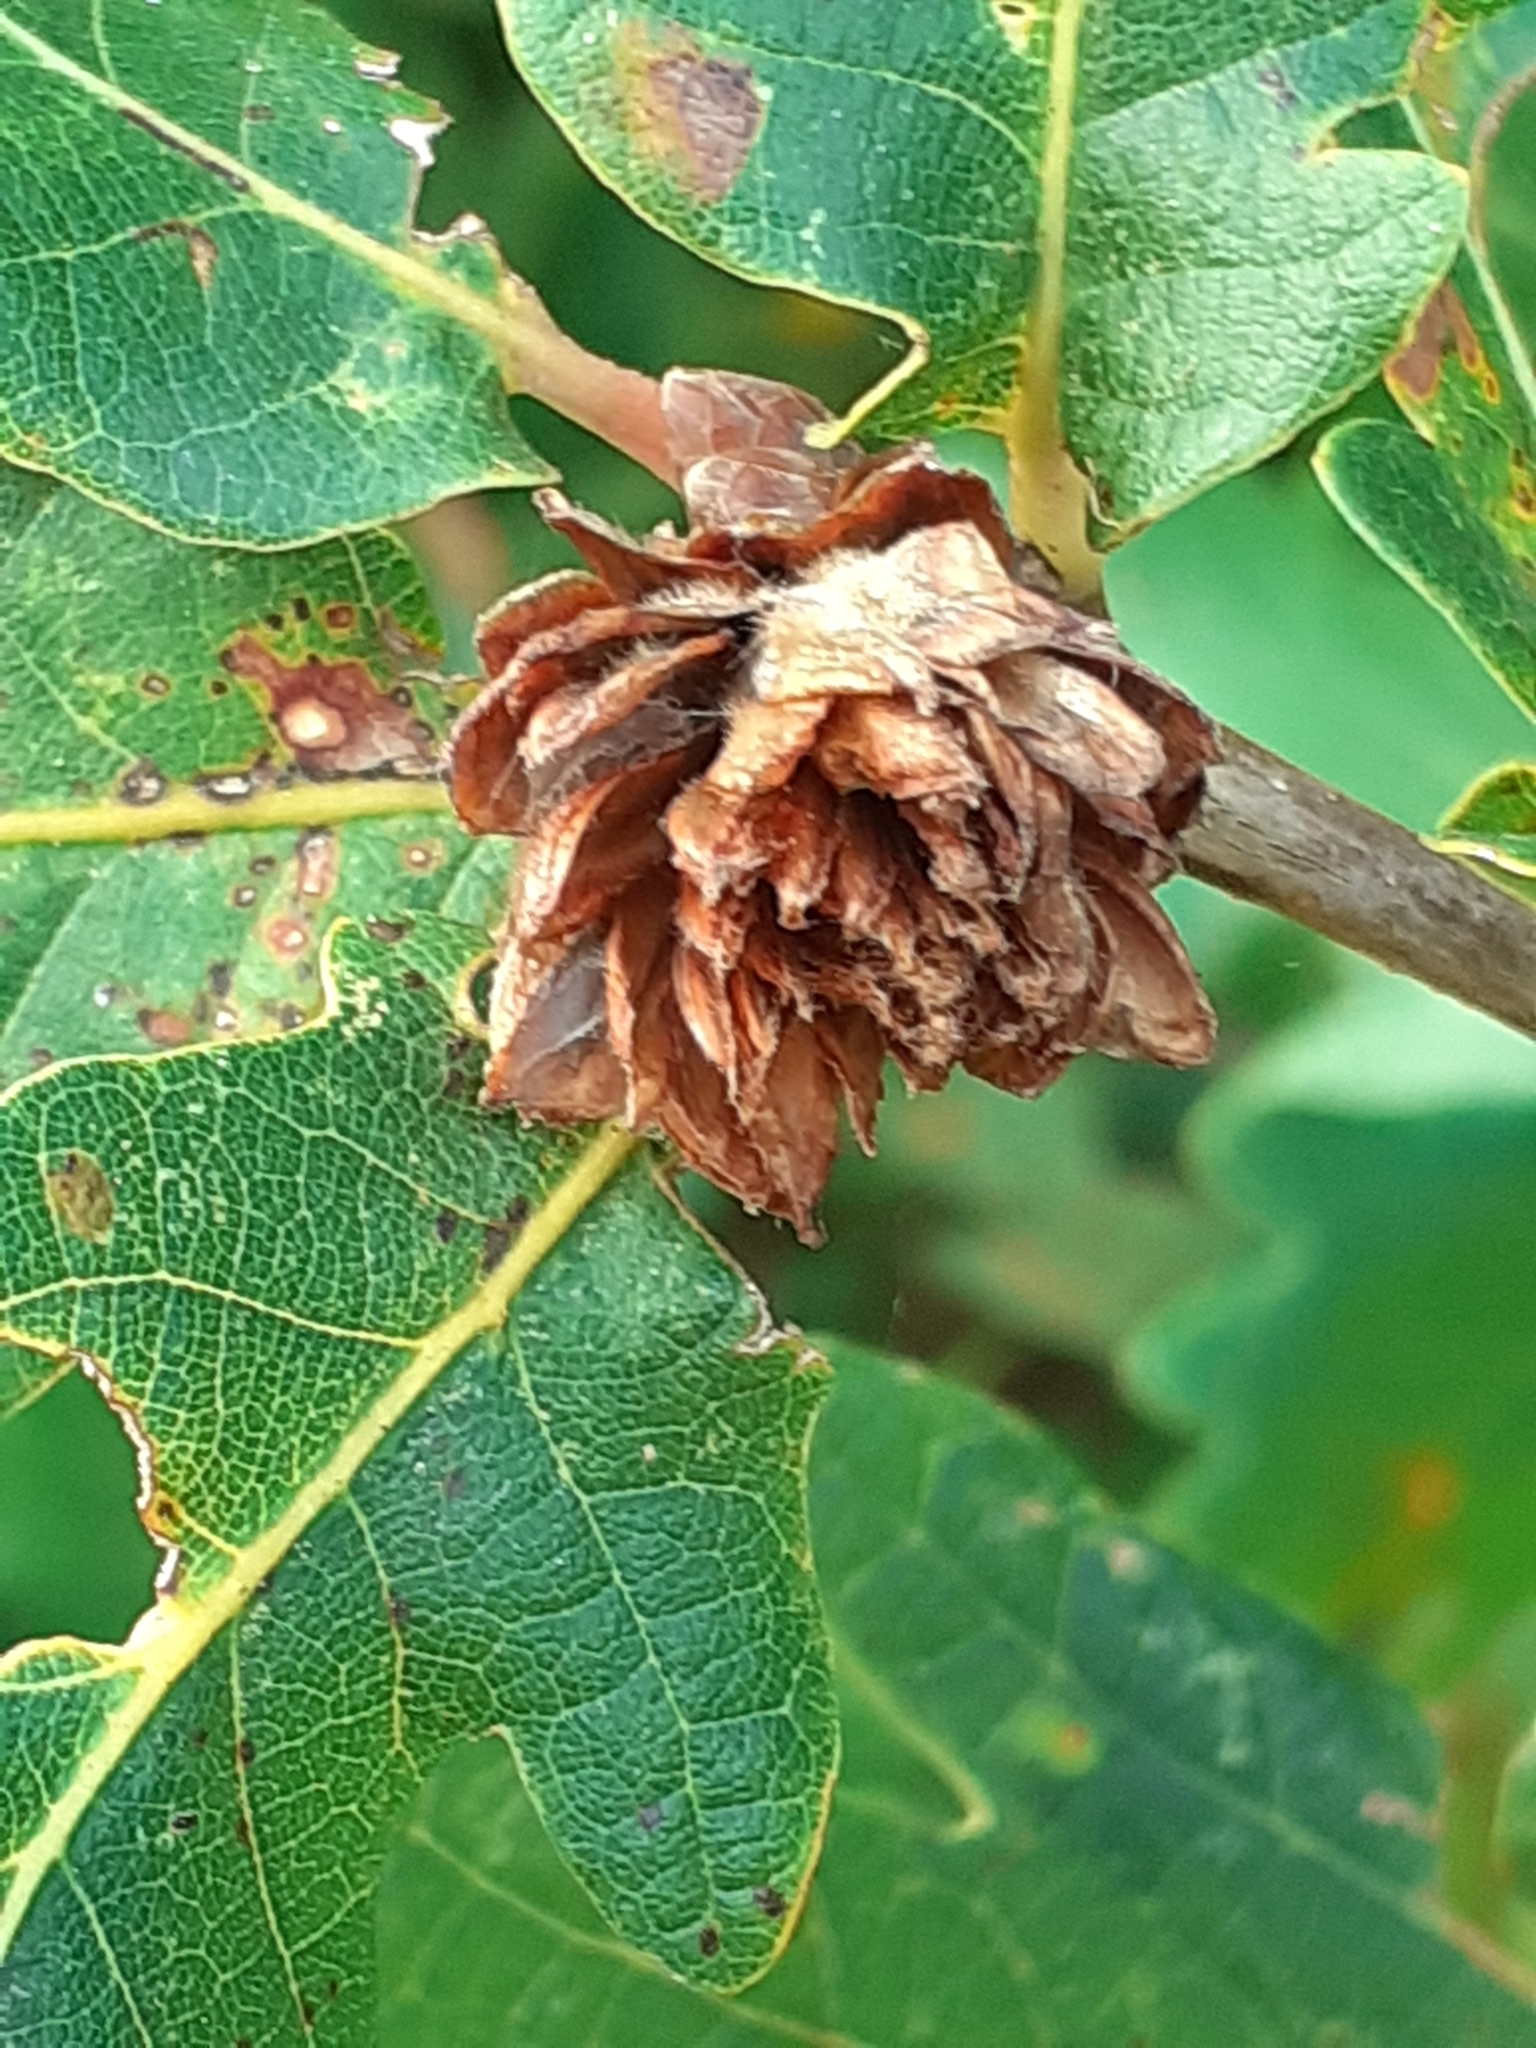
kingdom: Animalia
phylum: Arthropoda
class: Insecta
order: Hymenoptera
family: Cynipidae
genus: Andricus
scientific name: Andricus foecundatrix
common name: Artichoke gall
